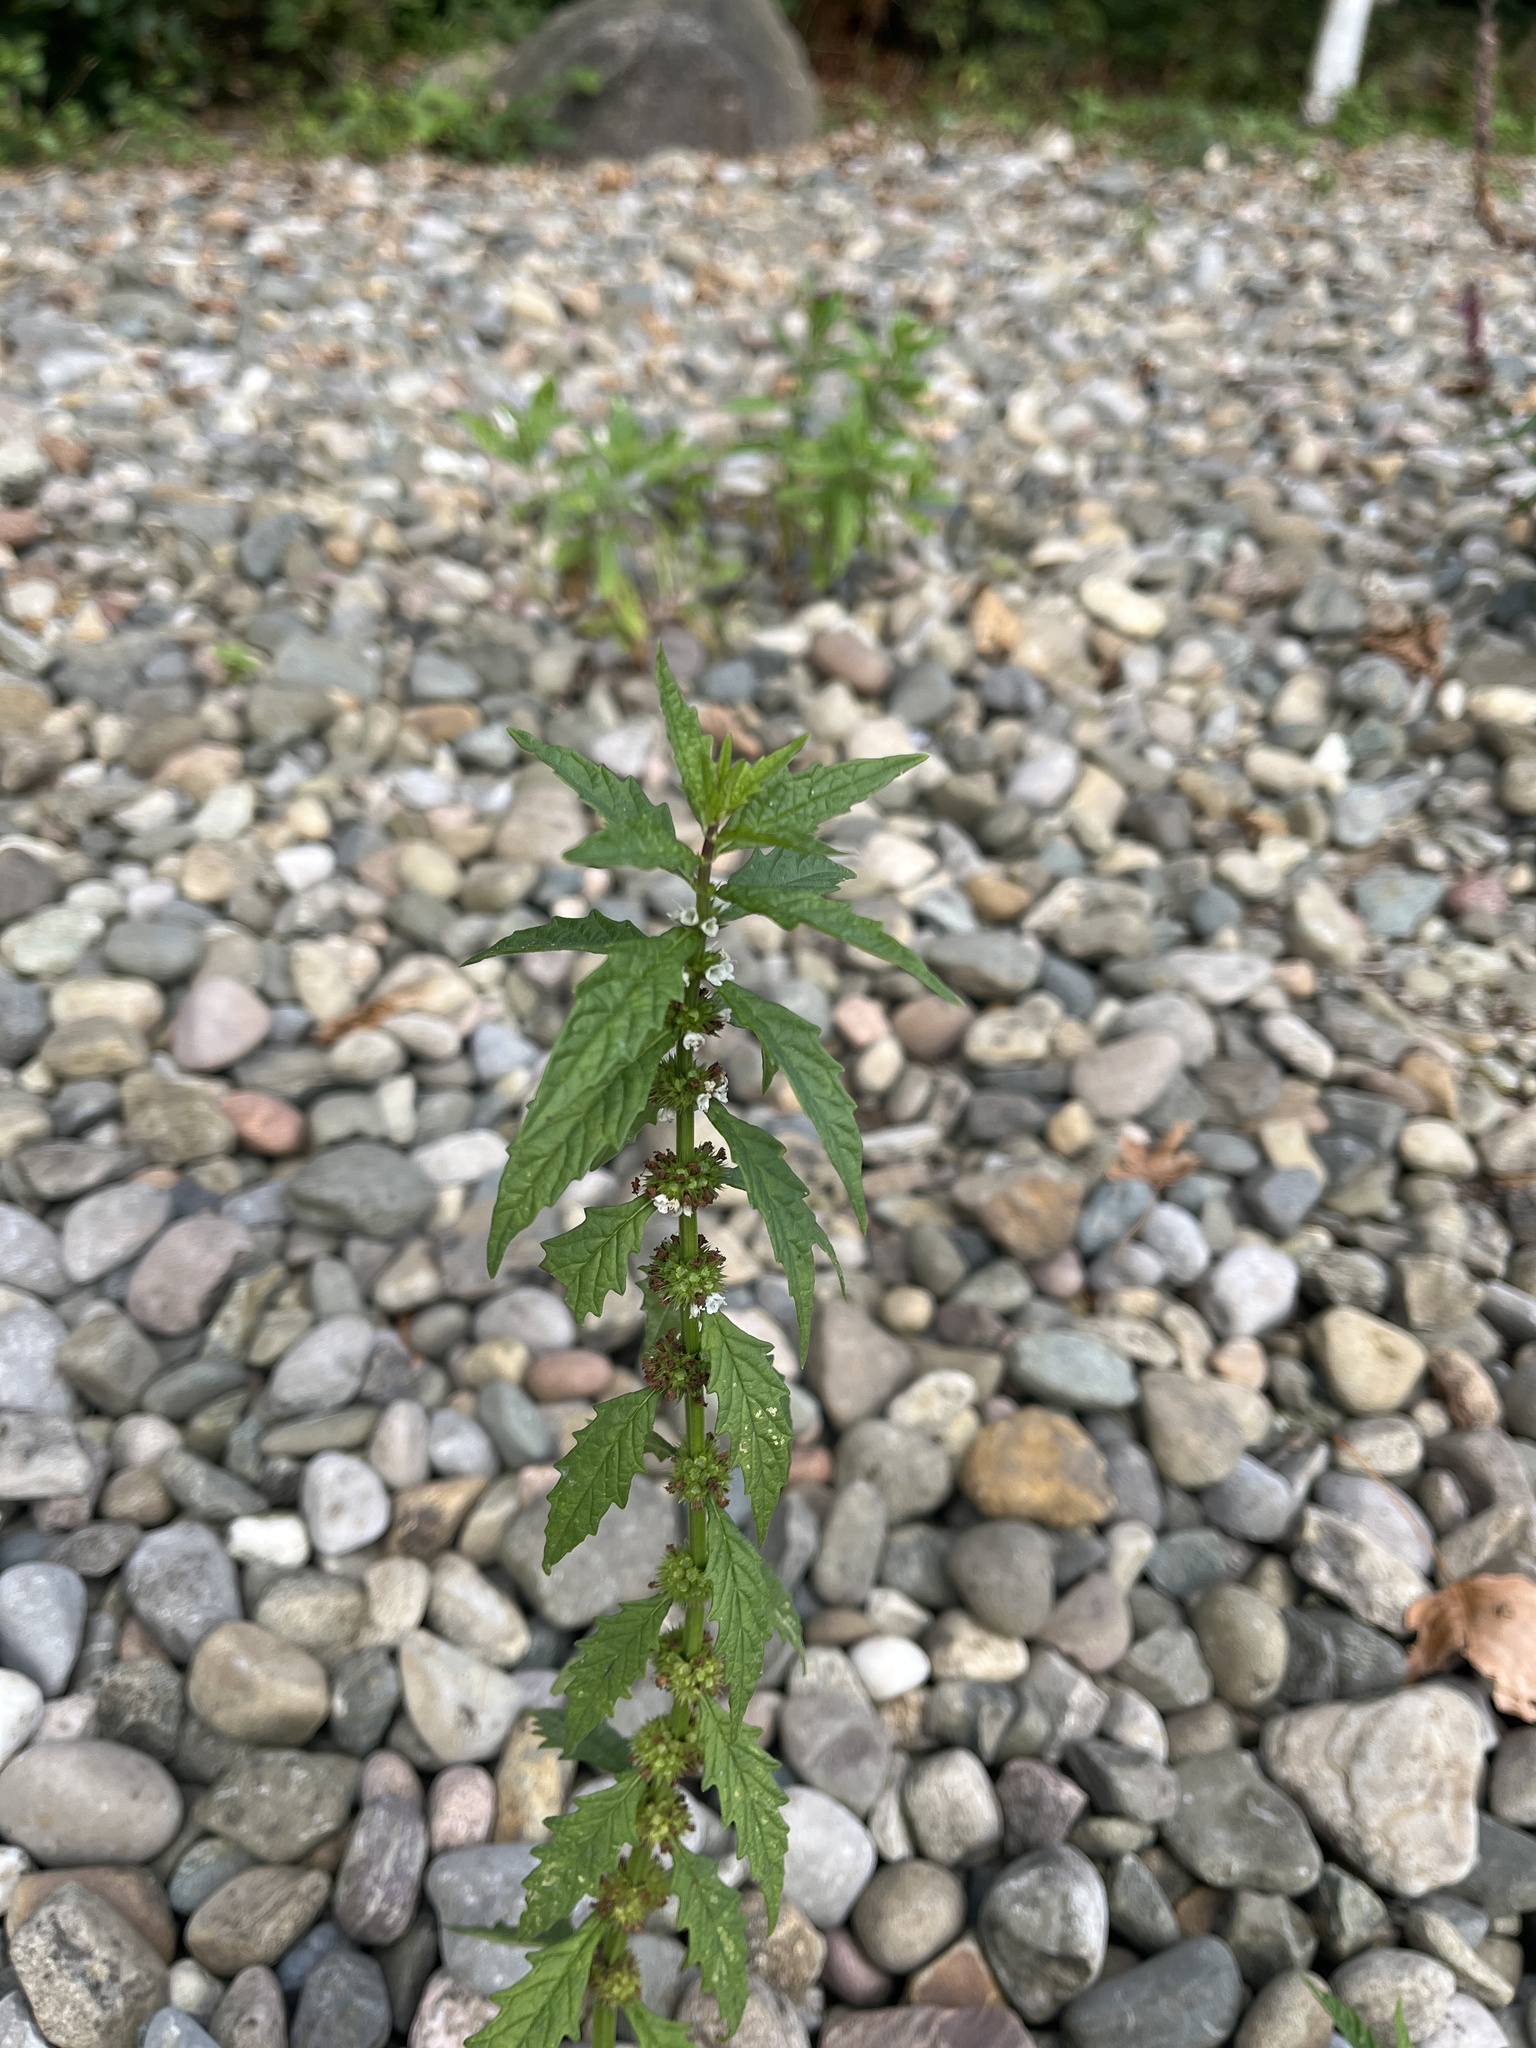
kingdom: Plantae
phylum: Tracheophyta
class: Magnoliopsida
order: Lamiales
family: Lamiaceae
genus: Lycopus
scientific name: Lycopus europaeus
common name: European bugleweed
